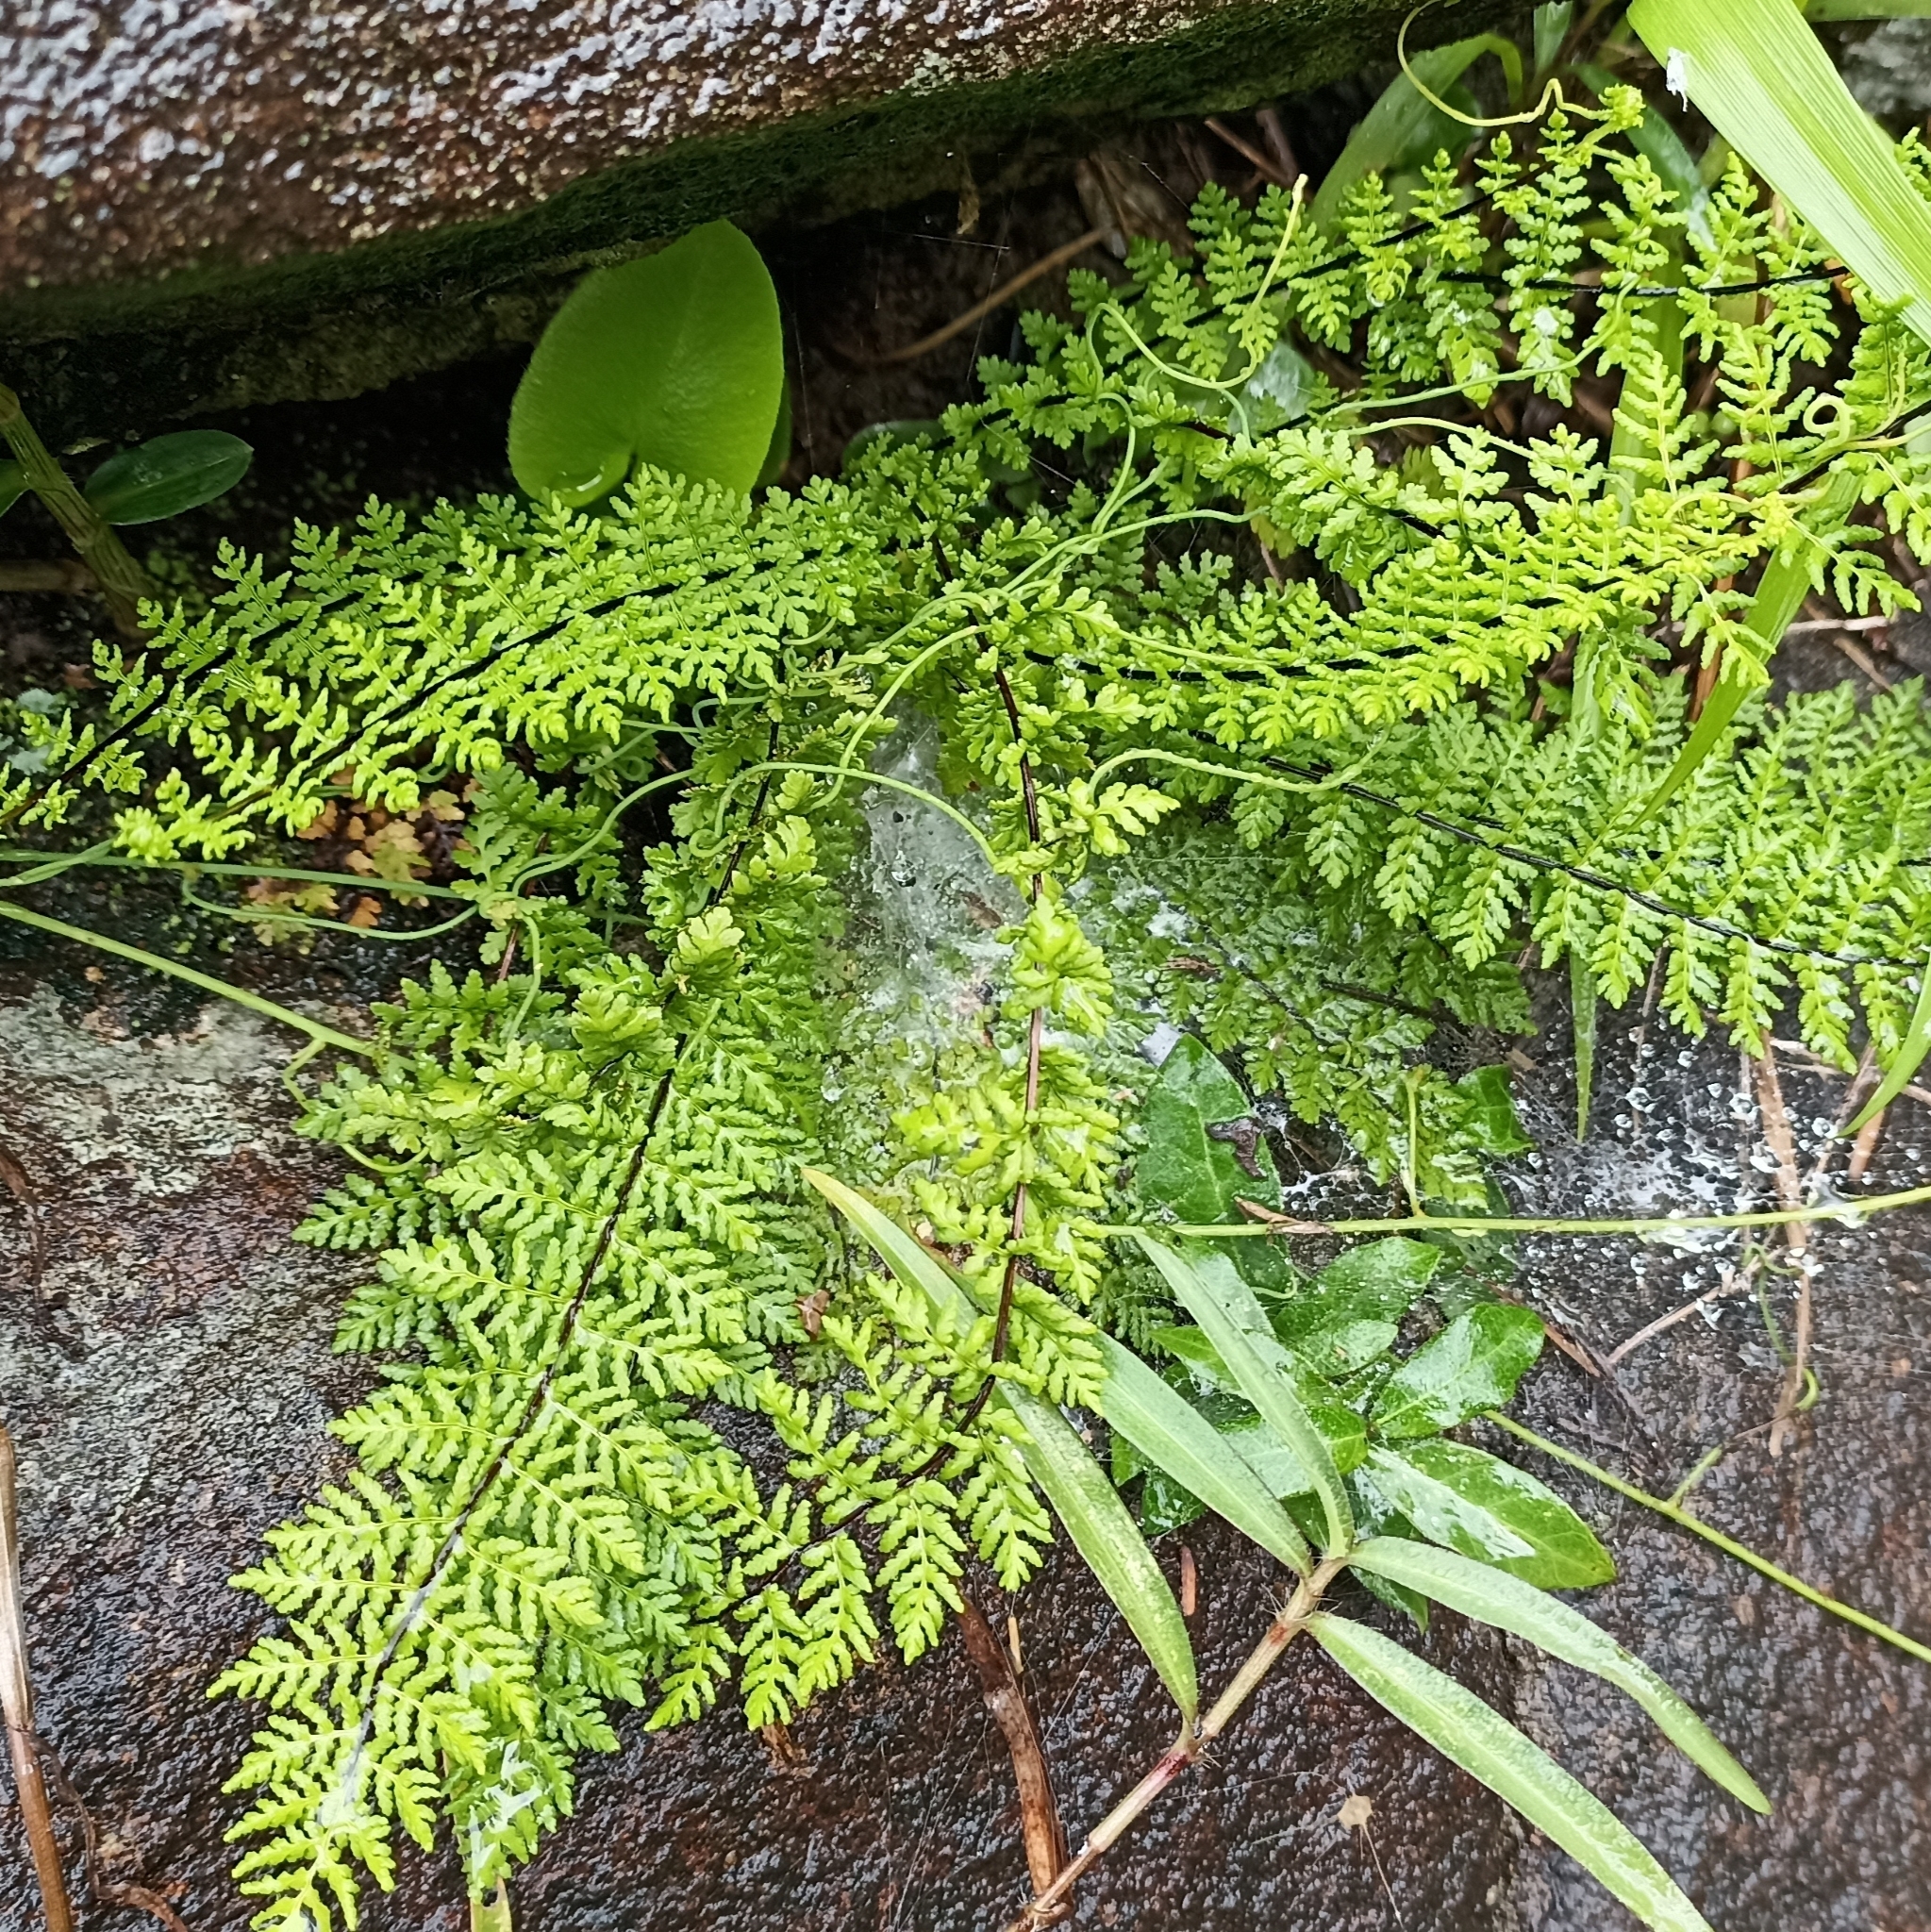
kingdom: Plantae
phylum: Tracheophyta
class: Polypodiopsida
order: Polypodiales
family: Pteridaceae
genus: Oeosporangium
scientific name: Oeosporangium elegans
